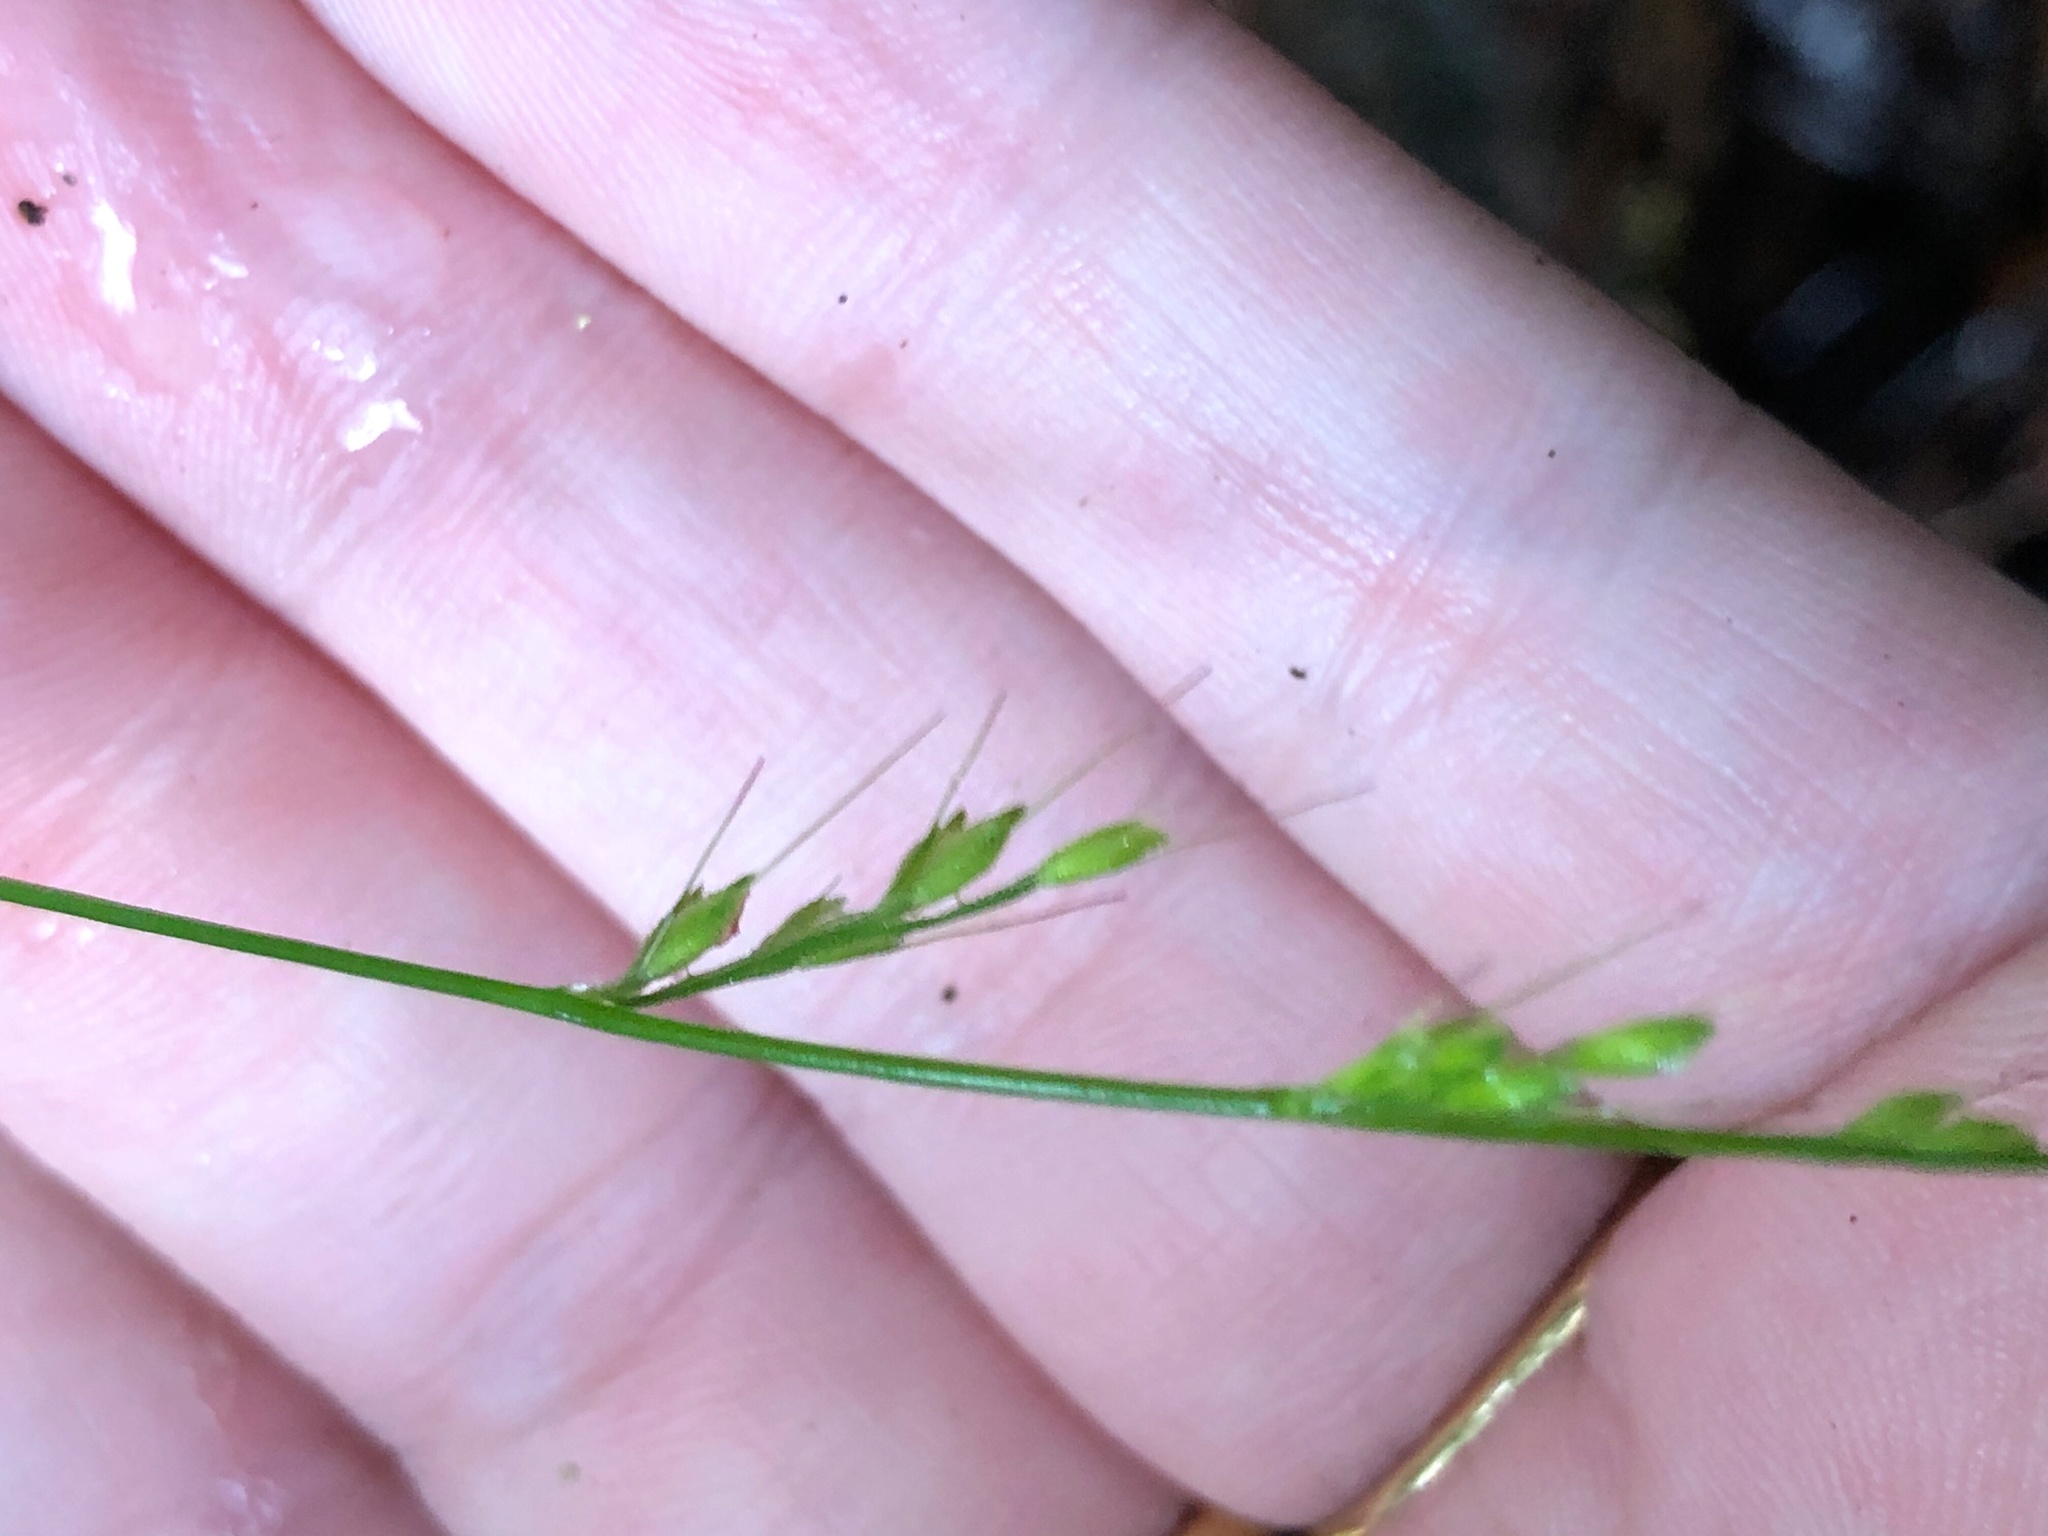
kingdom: Plantae
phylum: Tracheophyta
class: Liliopsida
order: Poales
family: Poaceae
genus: Oplismenus
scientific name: Oplismenus hirtellus
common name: Basketgrass
